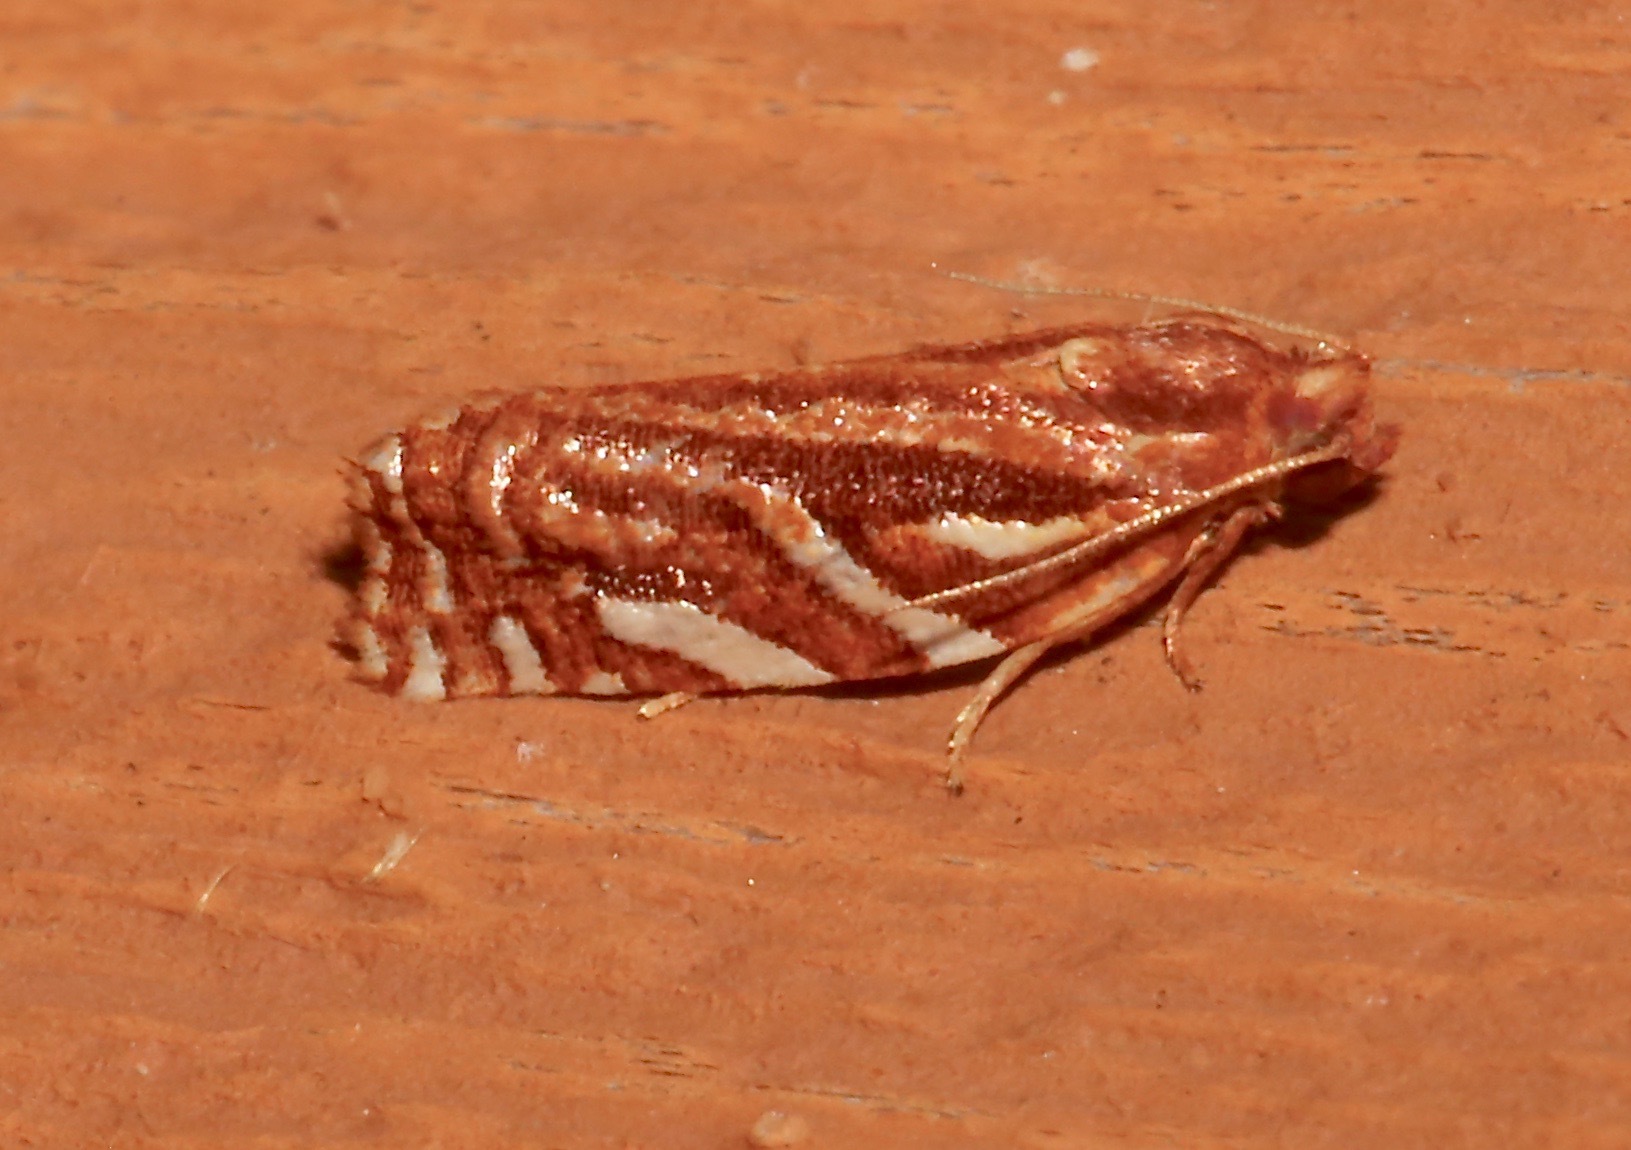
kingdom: Animalia
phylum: Arthropoda
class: Insecta
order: Lepidoptera
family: Tortricidae
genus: Choristoneura
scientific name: Choristoneura argentifasciata
